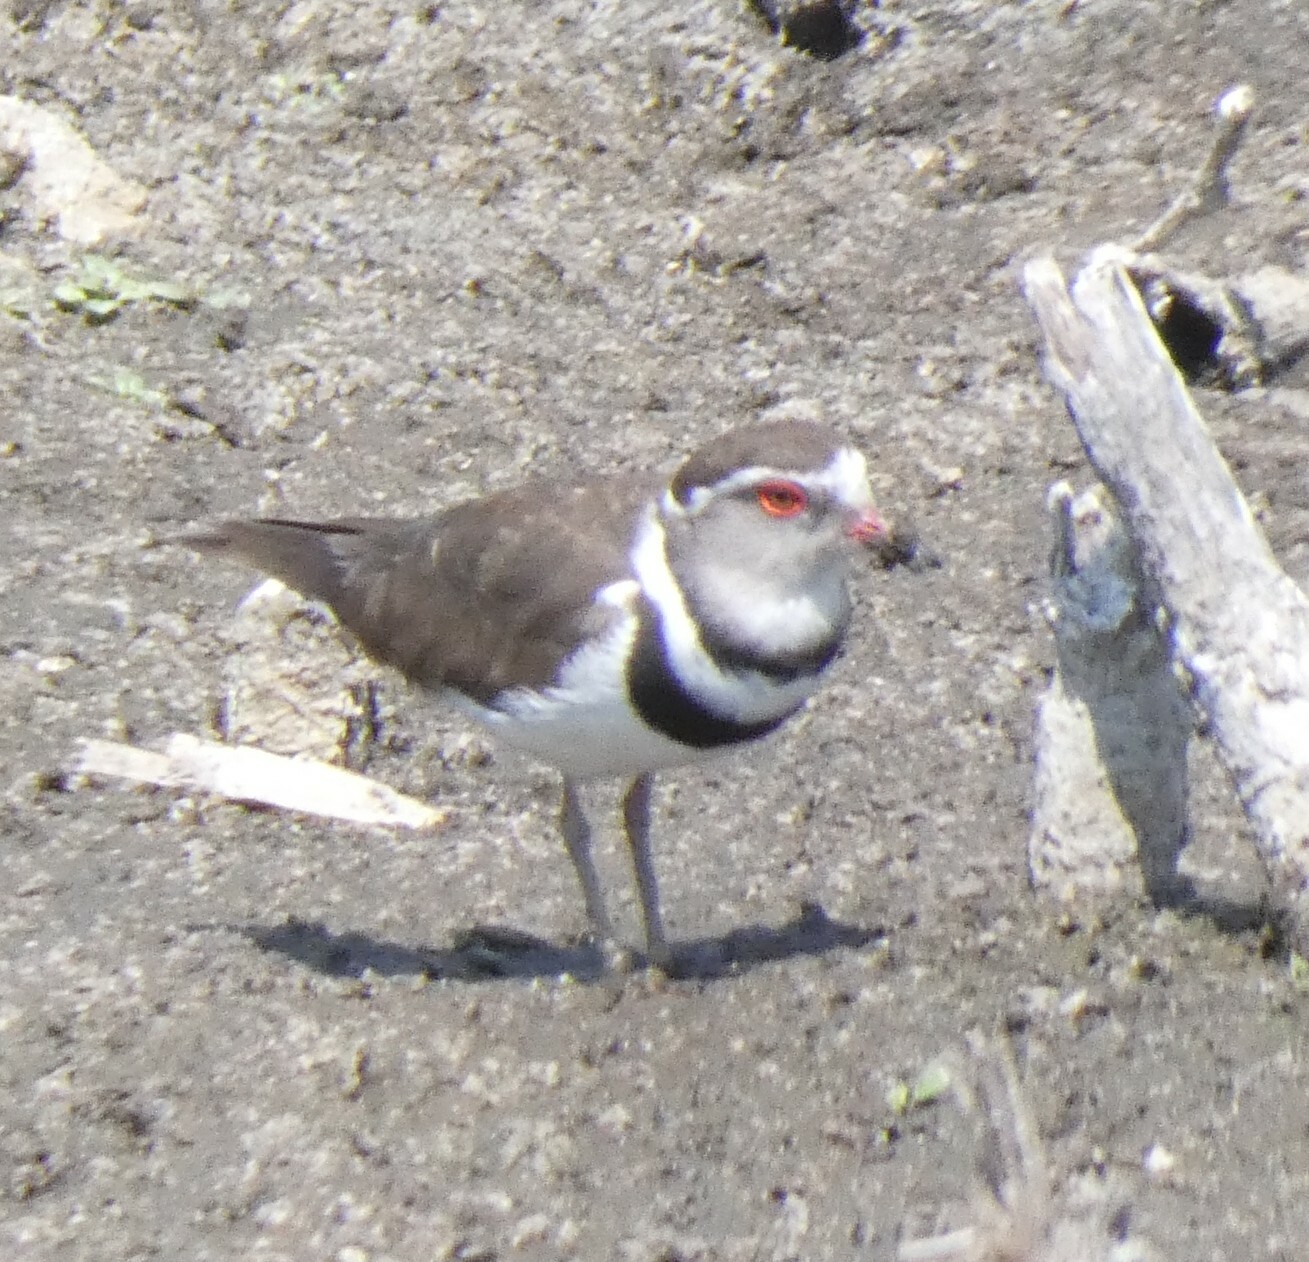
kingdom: Animalia
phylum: Chordata
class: Aves
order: Charadriiformes
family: Charadriidae
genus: Charadrius
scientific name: Charadrius tricollaris
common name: Three-banded plover
